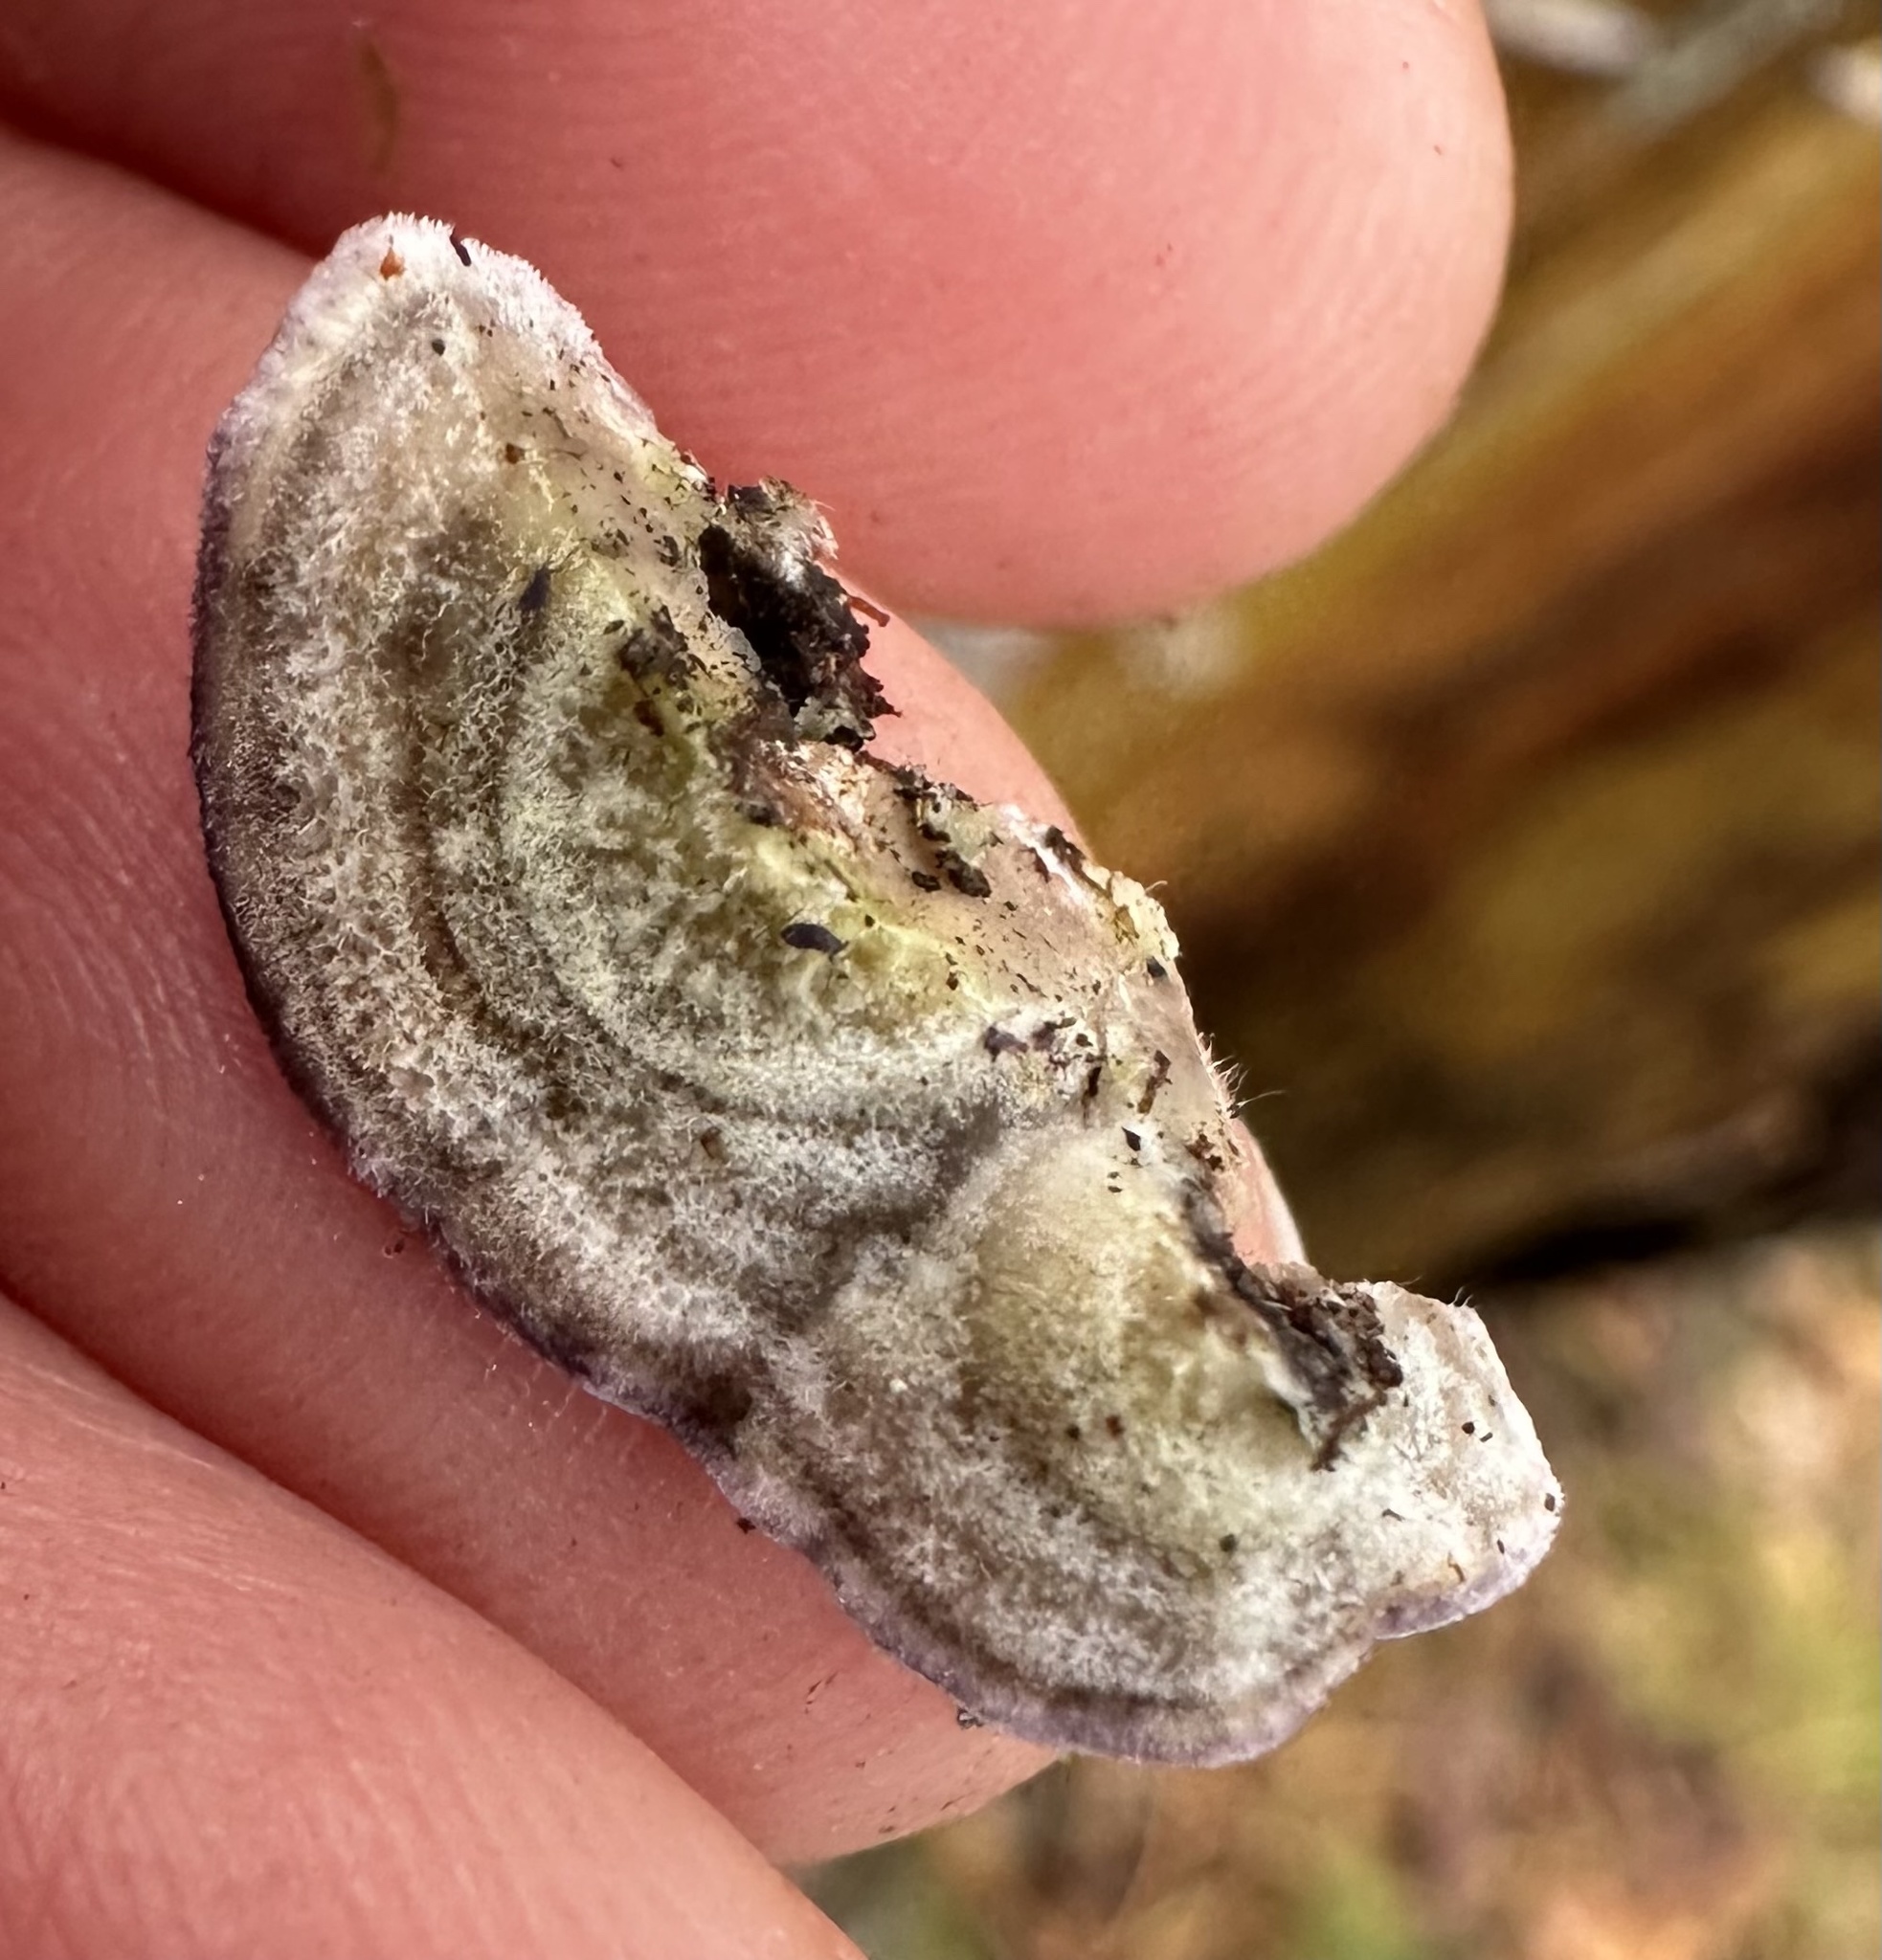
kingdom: Fungi
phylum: Basidiomycota
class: Agaricomycetes
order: Hymenochaetales
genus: Trichaptum
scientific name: Trichaptum abietinum
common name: Purplepore bracket
